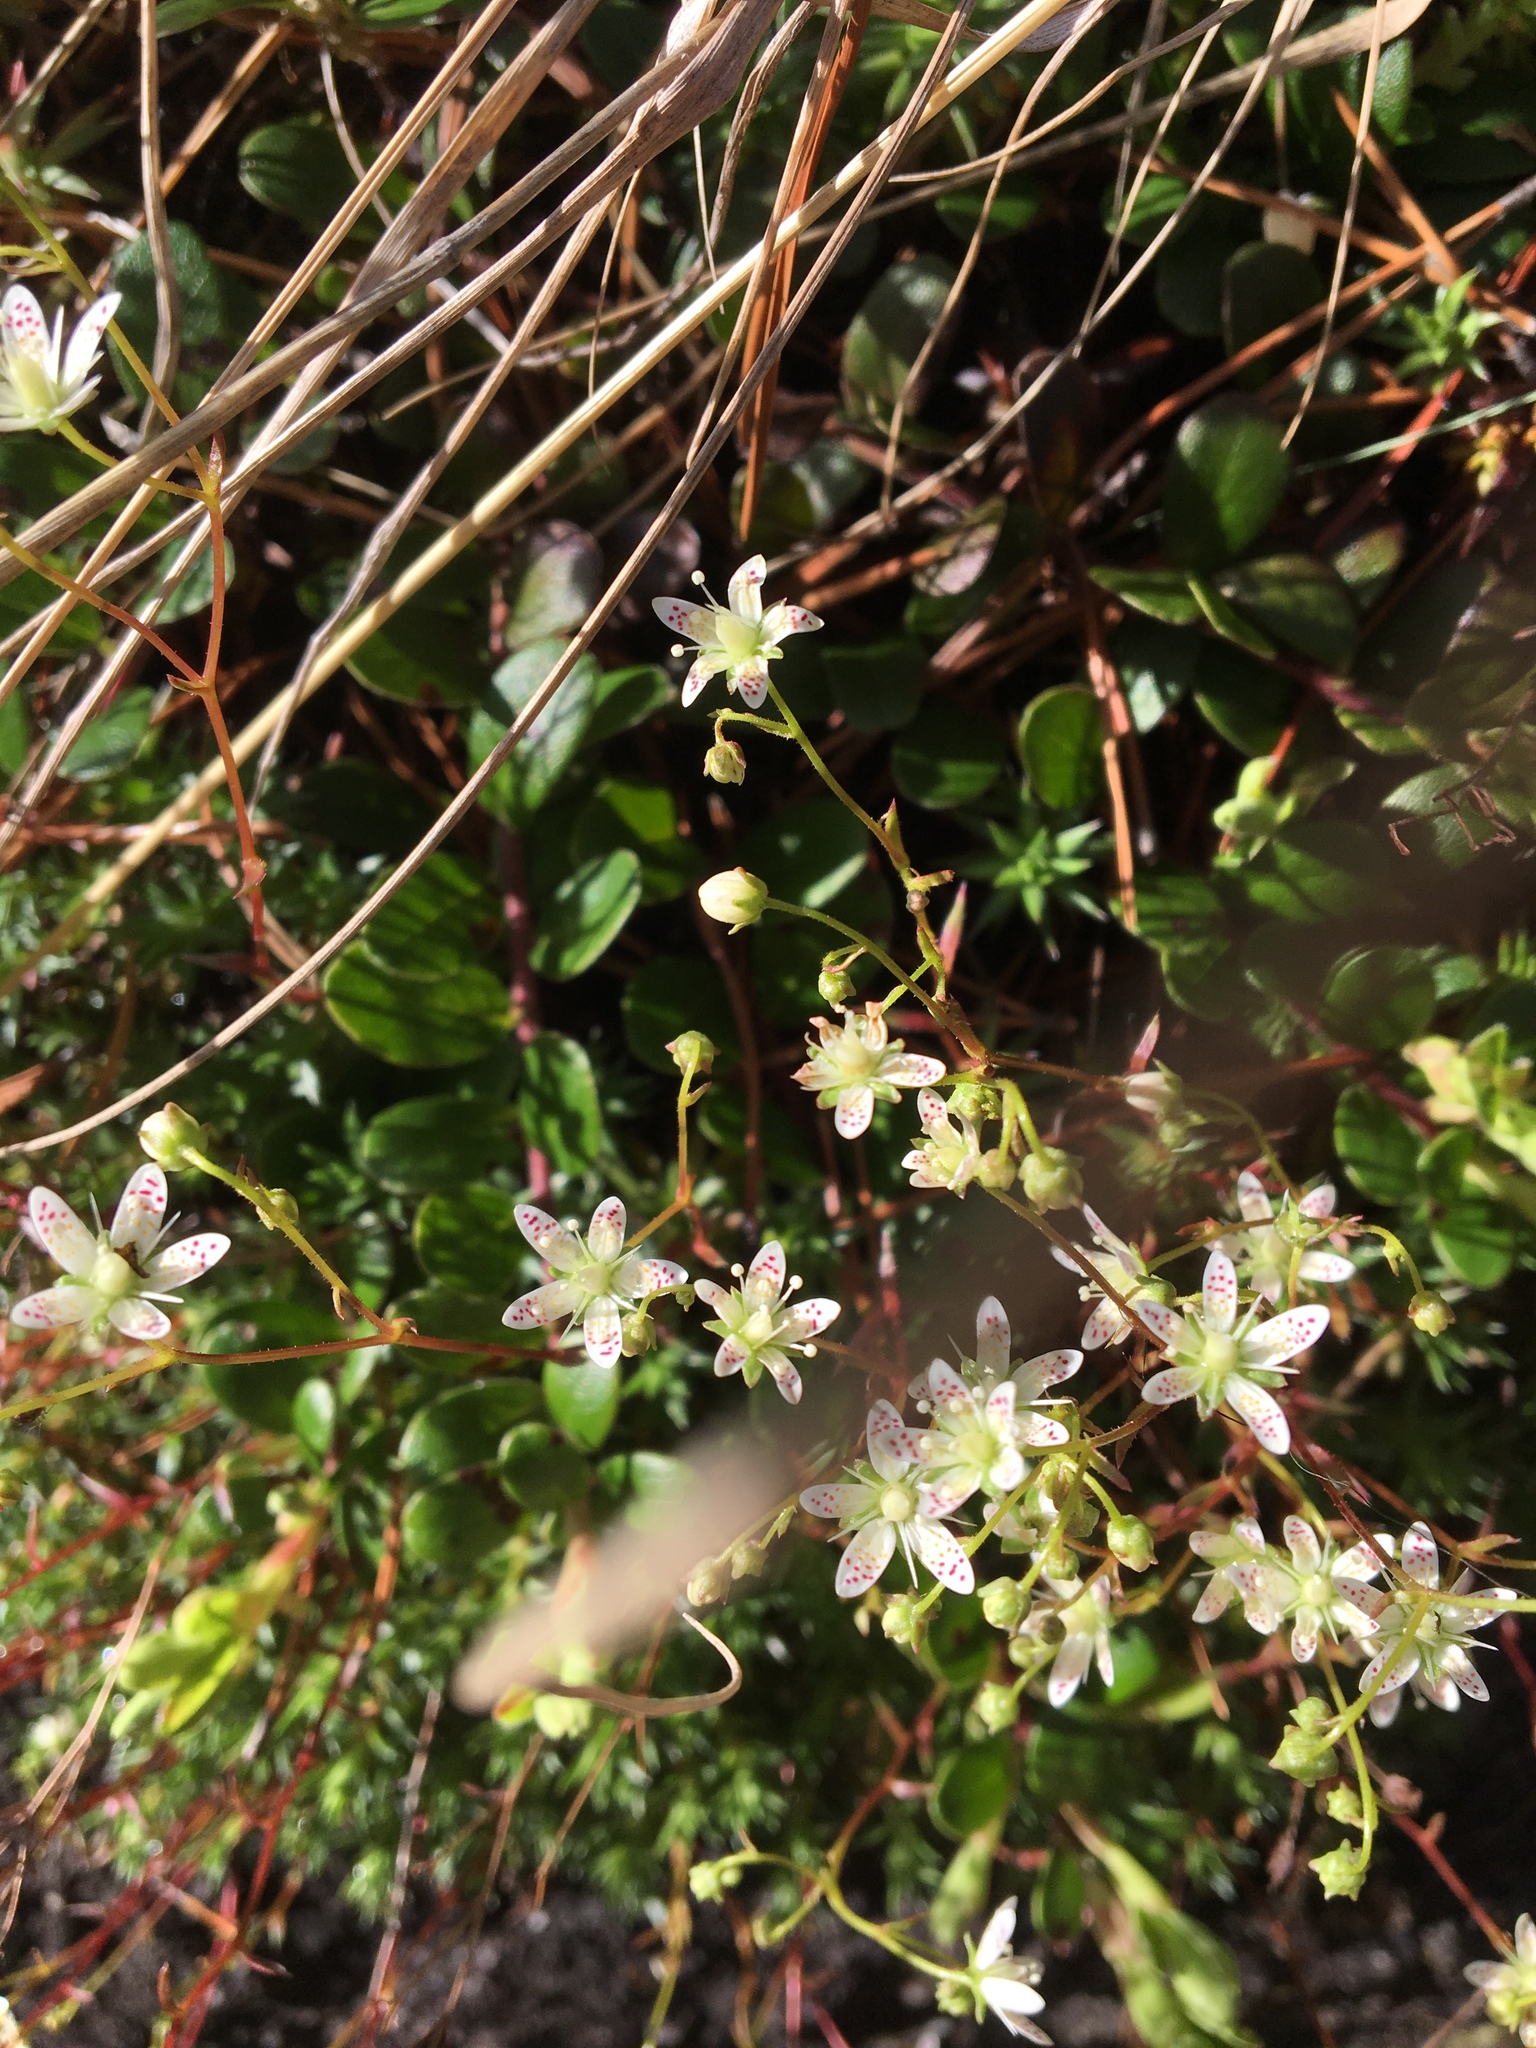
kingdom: Plantae
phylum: Tracheophyta
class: Magnoliopsida
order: Saxifragales
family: Saxifragaceae
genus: Saxifraga
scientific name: Saxifraga bronchialis
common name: Matted saxifrage
